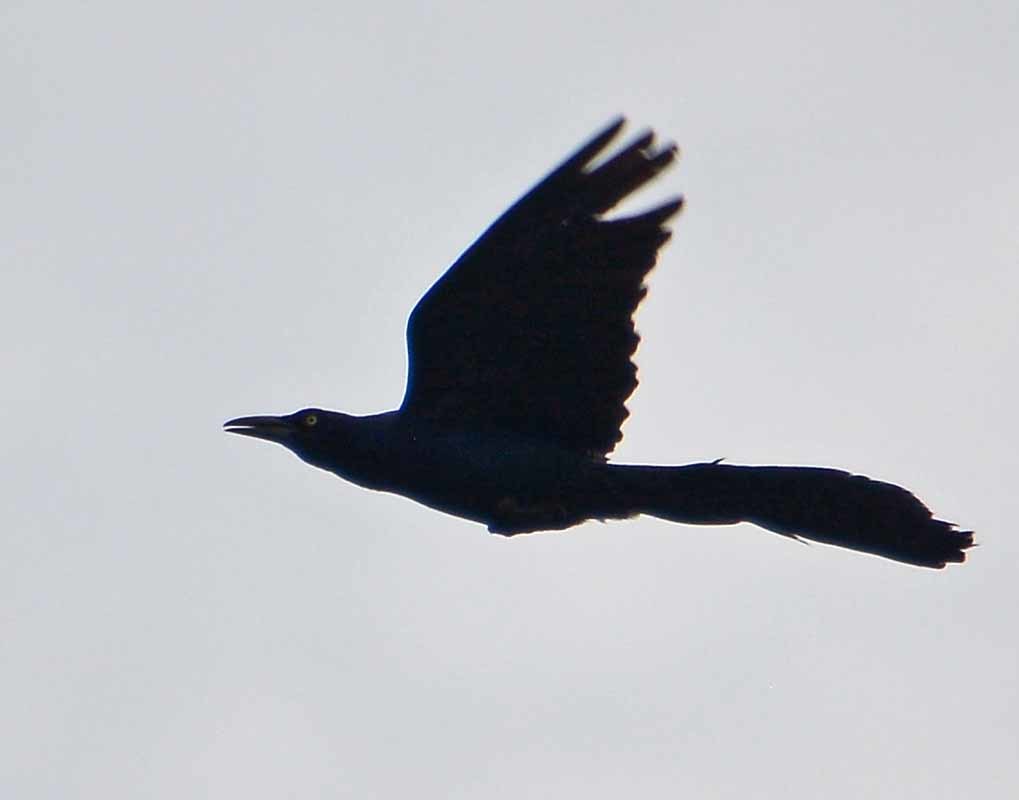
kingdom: Animalia
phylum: Chordata
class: Aves
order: Passeriformes
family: Icteridae
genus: Quiscalus
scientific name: Quiscalus mexicanus
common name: Great-tailed grackle
